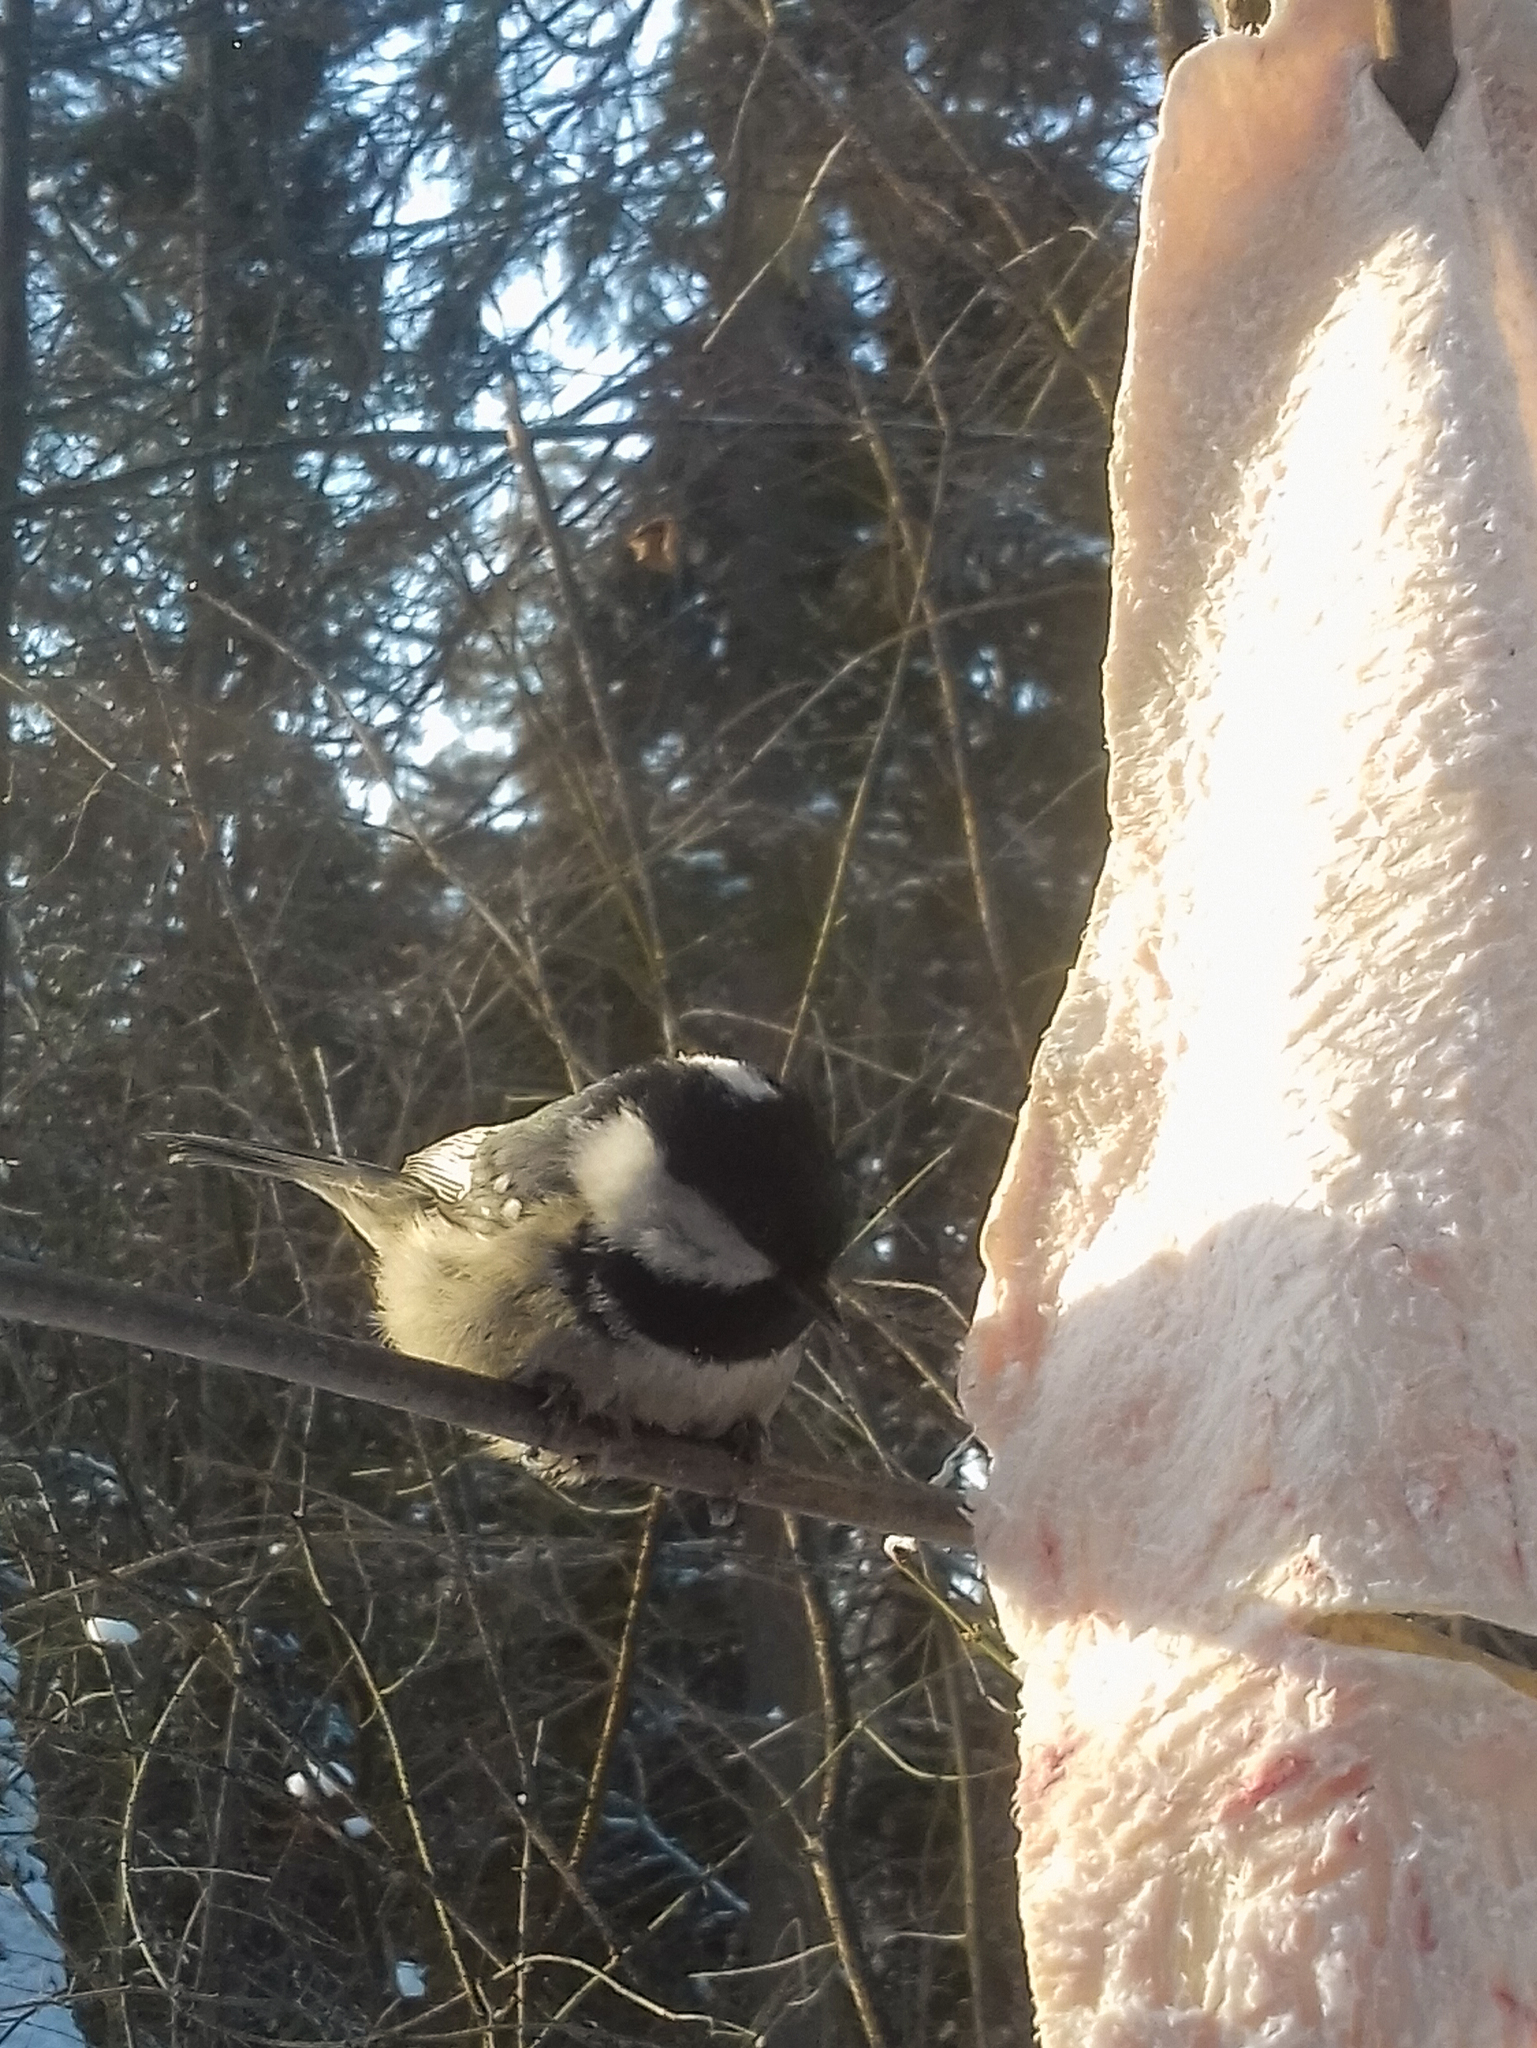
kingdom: Animalia
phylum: Chordata
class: Aves
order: Passeriformes
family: Paridae
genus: Periparus
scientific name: Periparus ater
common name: Coal tit
